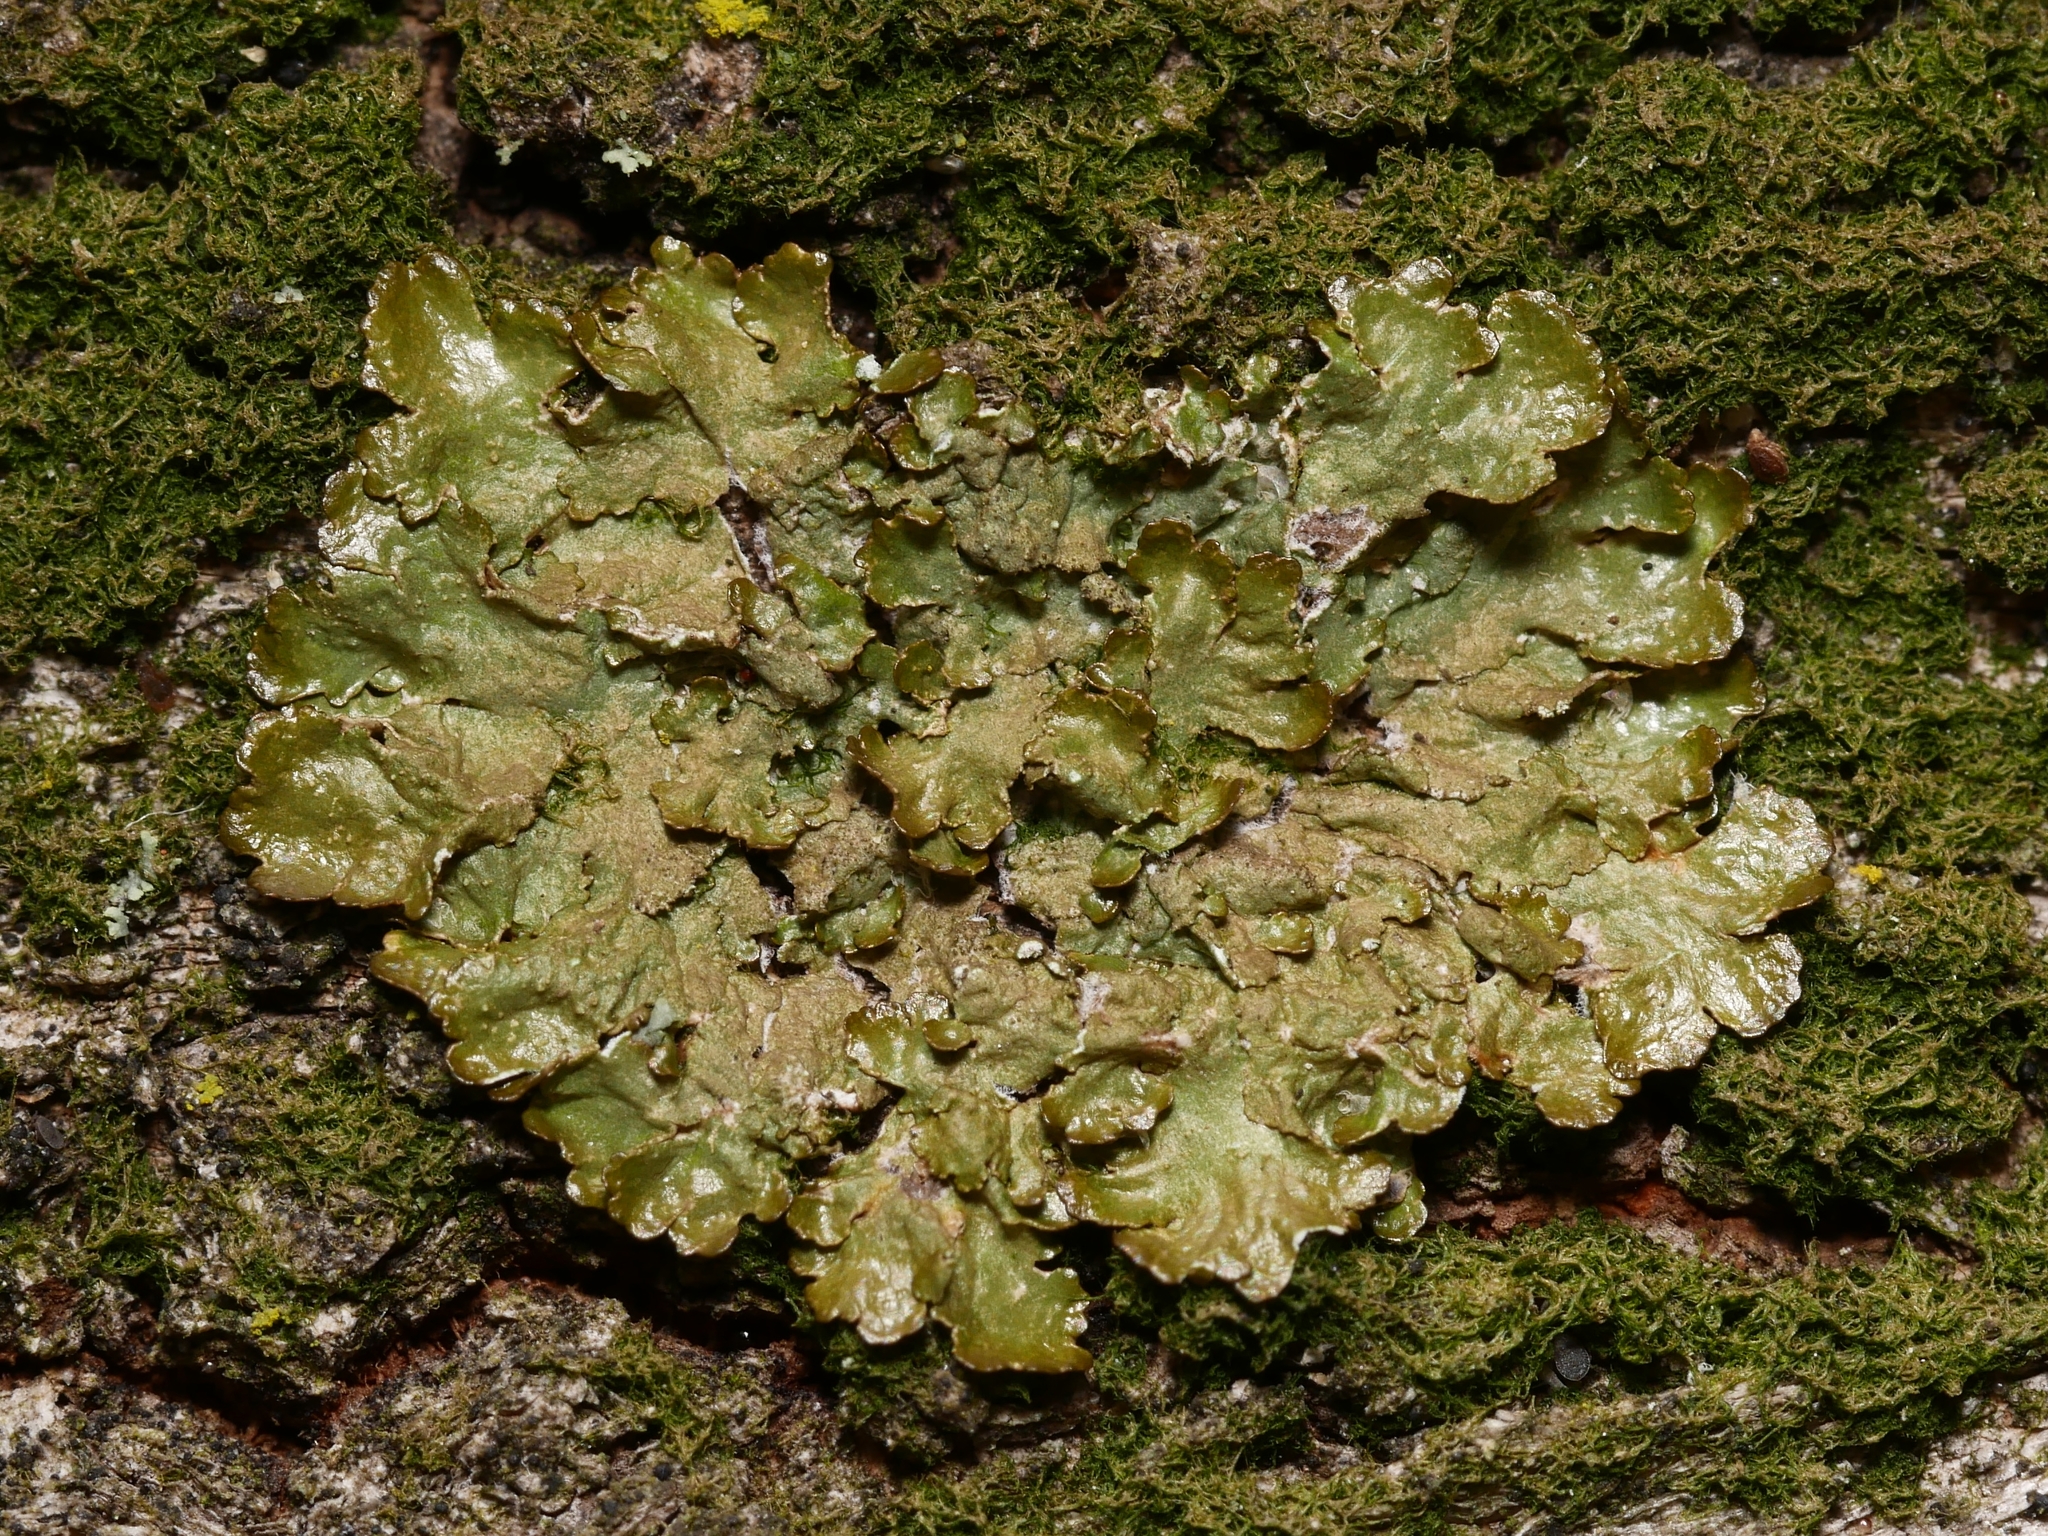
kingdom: Fungi
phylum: Ascomycota
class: Lecanoromycetes
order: Lecanorales
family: Parmeliaceae
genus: Melanelixia
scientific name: Melanelixia glabratula
